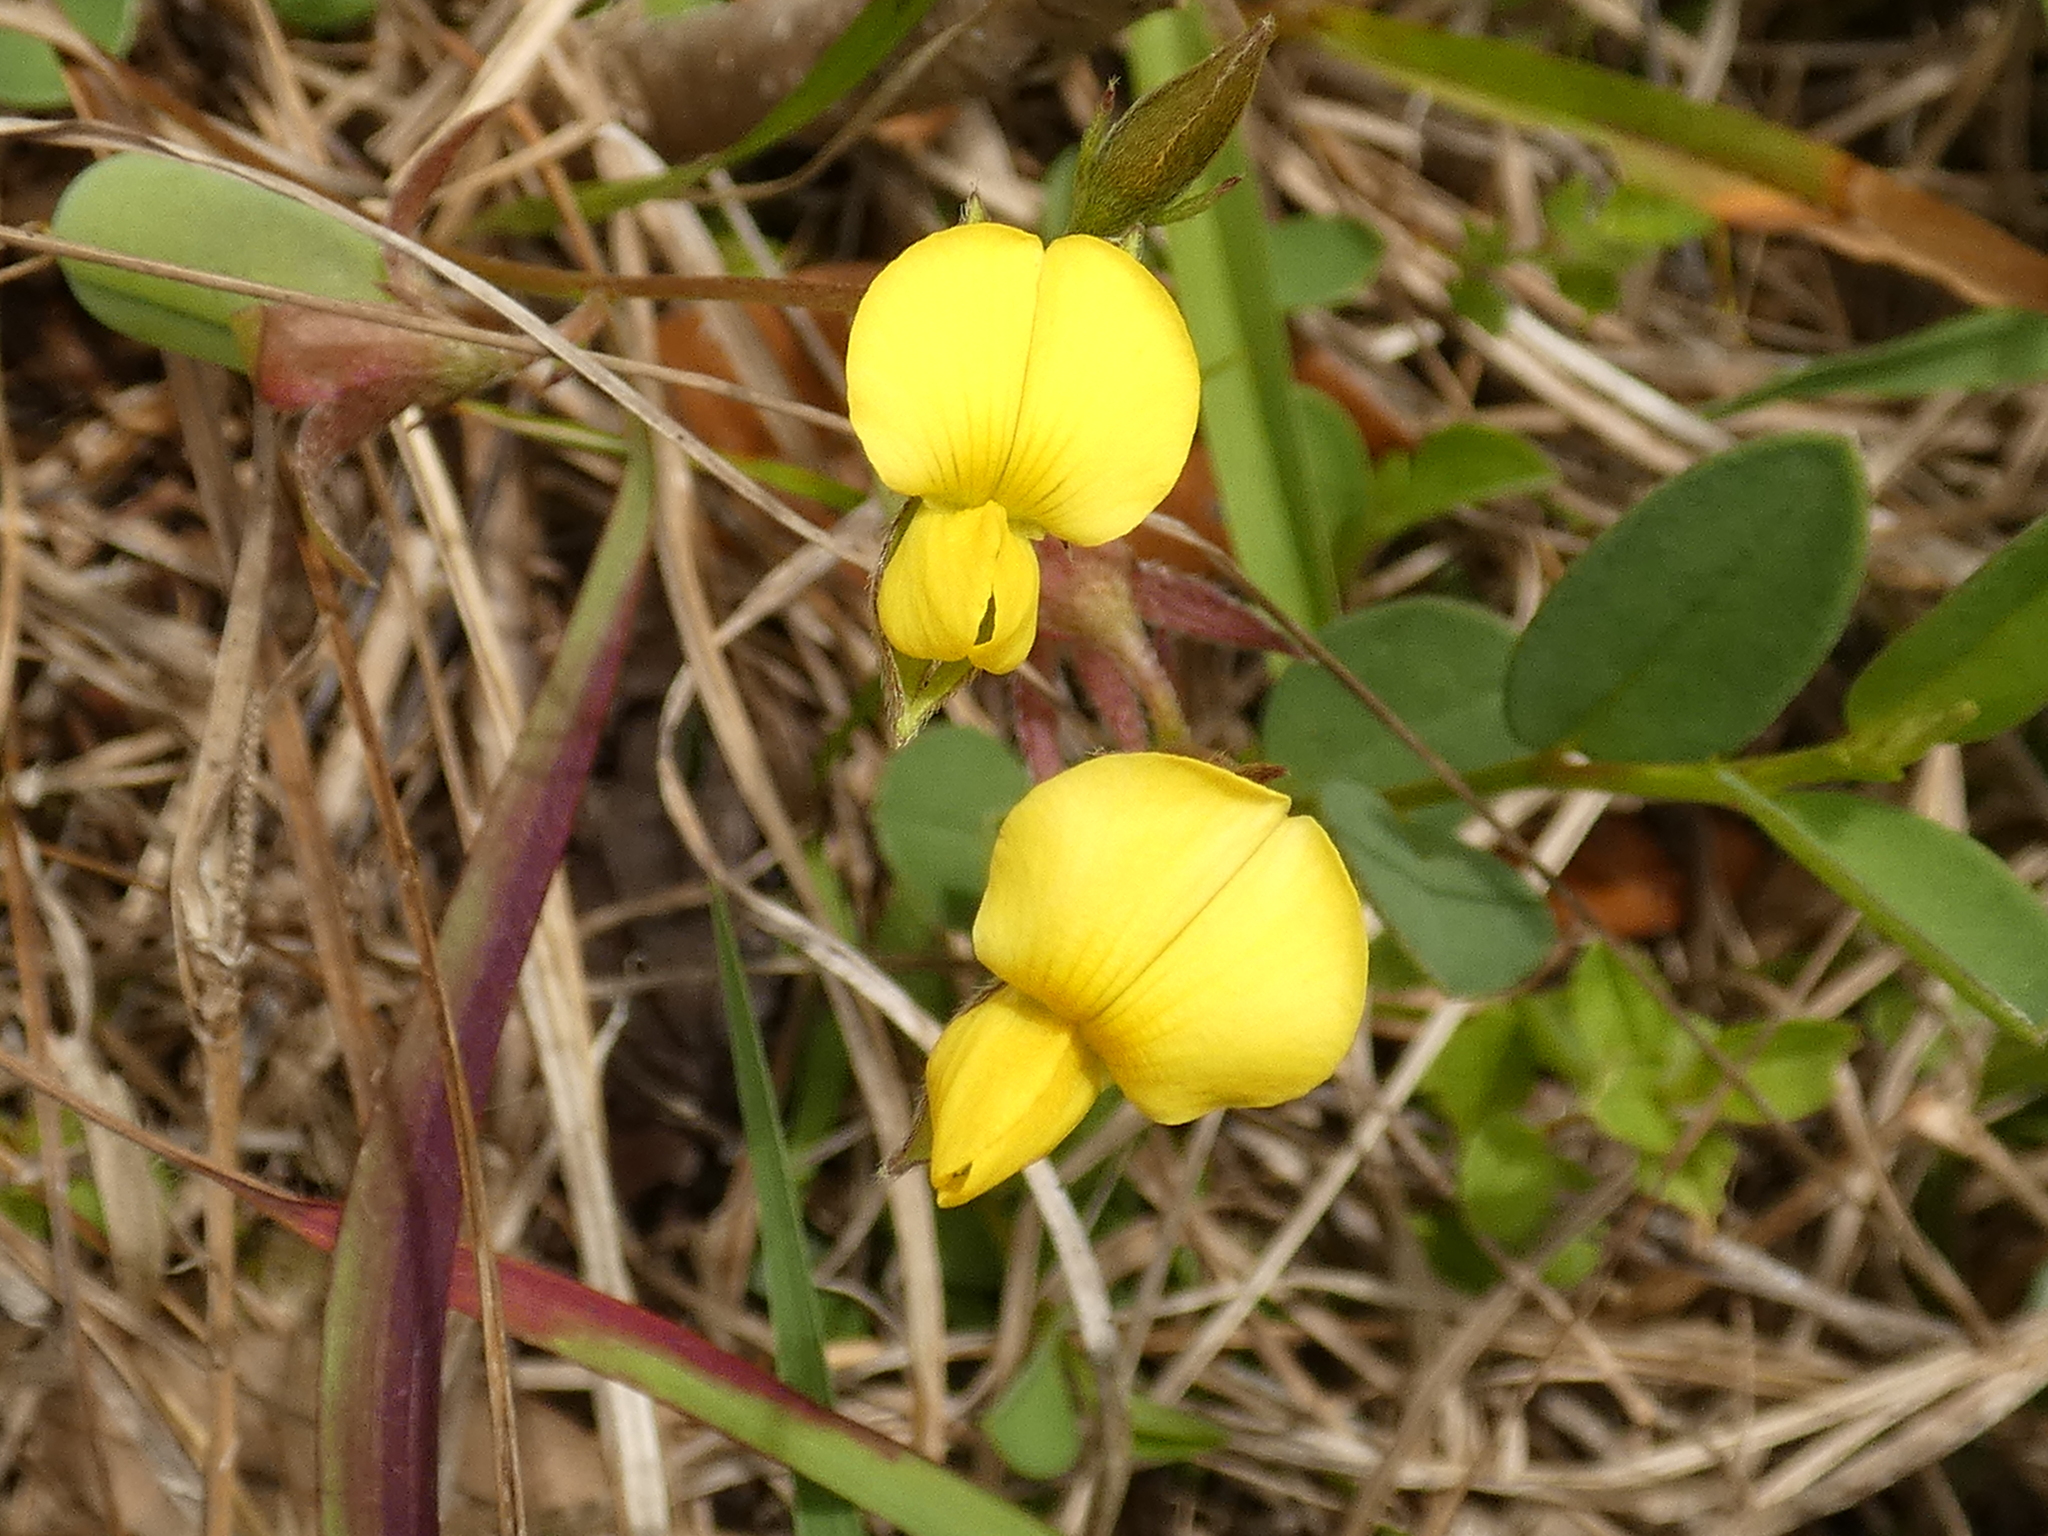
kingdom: Plantae
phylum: Tracheophyta
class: Magnoliopsida
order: Fabales
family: Fabaceae
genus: Crotalaria
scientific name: Crotalaria rotundifolia
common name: Prostrate rattlebox
